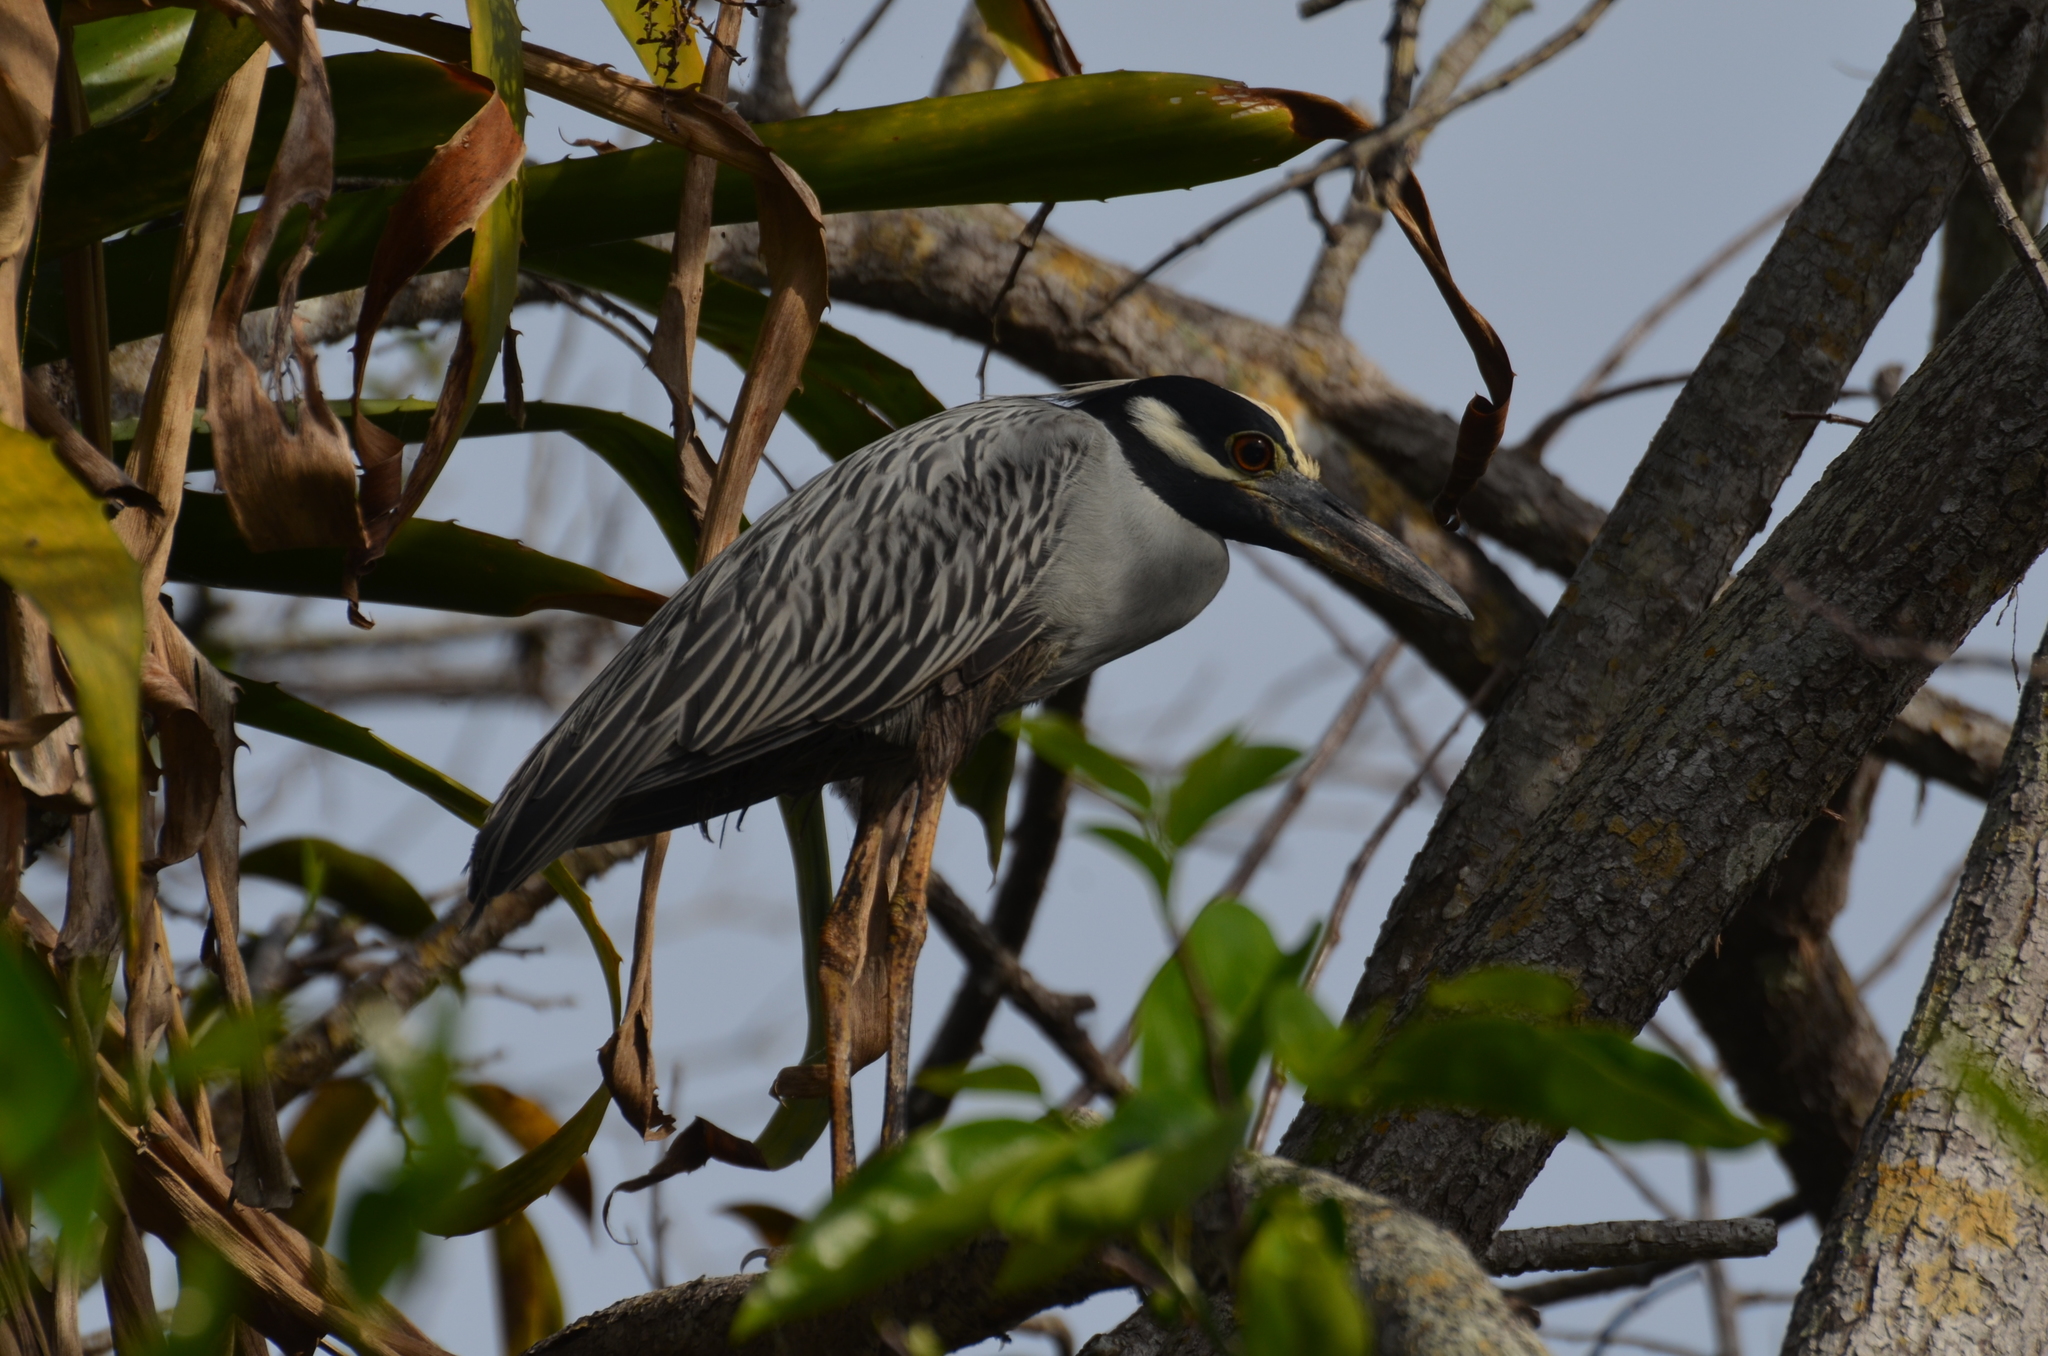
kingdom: Animalia
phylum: Chordata
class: Aves
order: Pelecaniformes
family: Ardeidae
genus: Nyctanassa
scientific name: Nyctanassa violacea
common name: Yellow-crowned night heron
